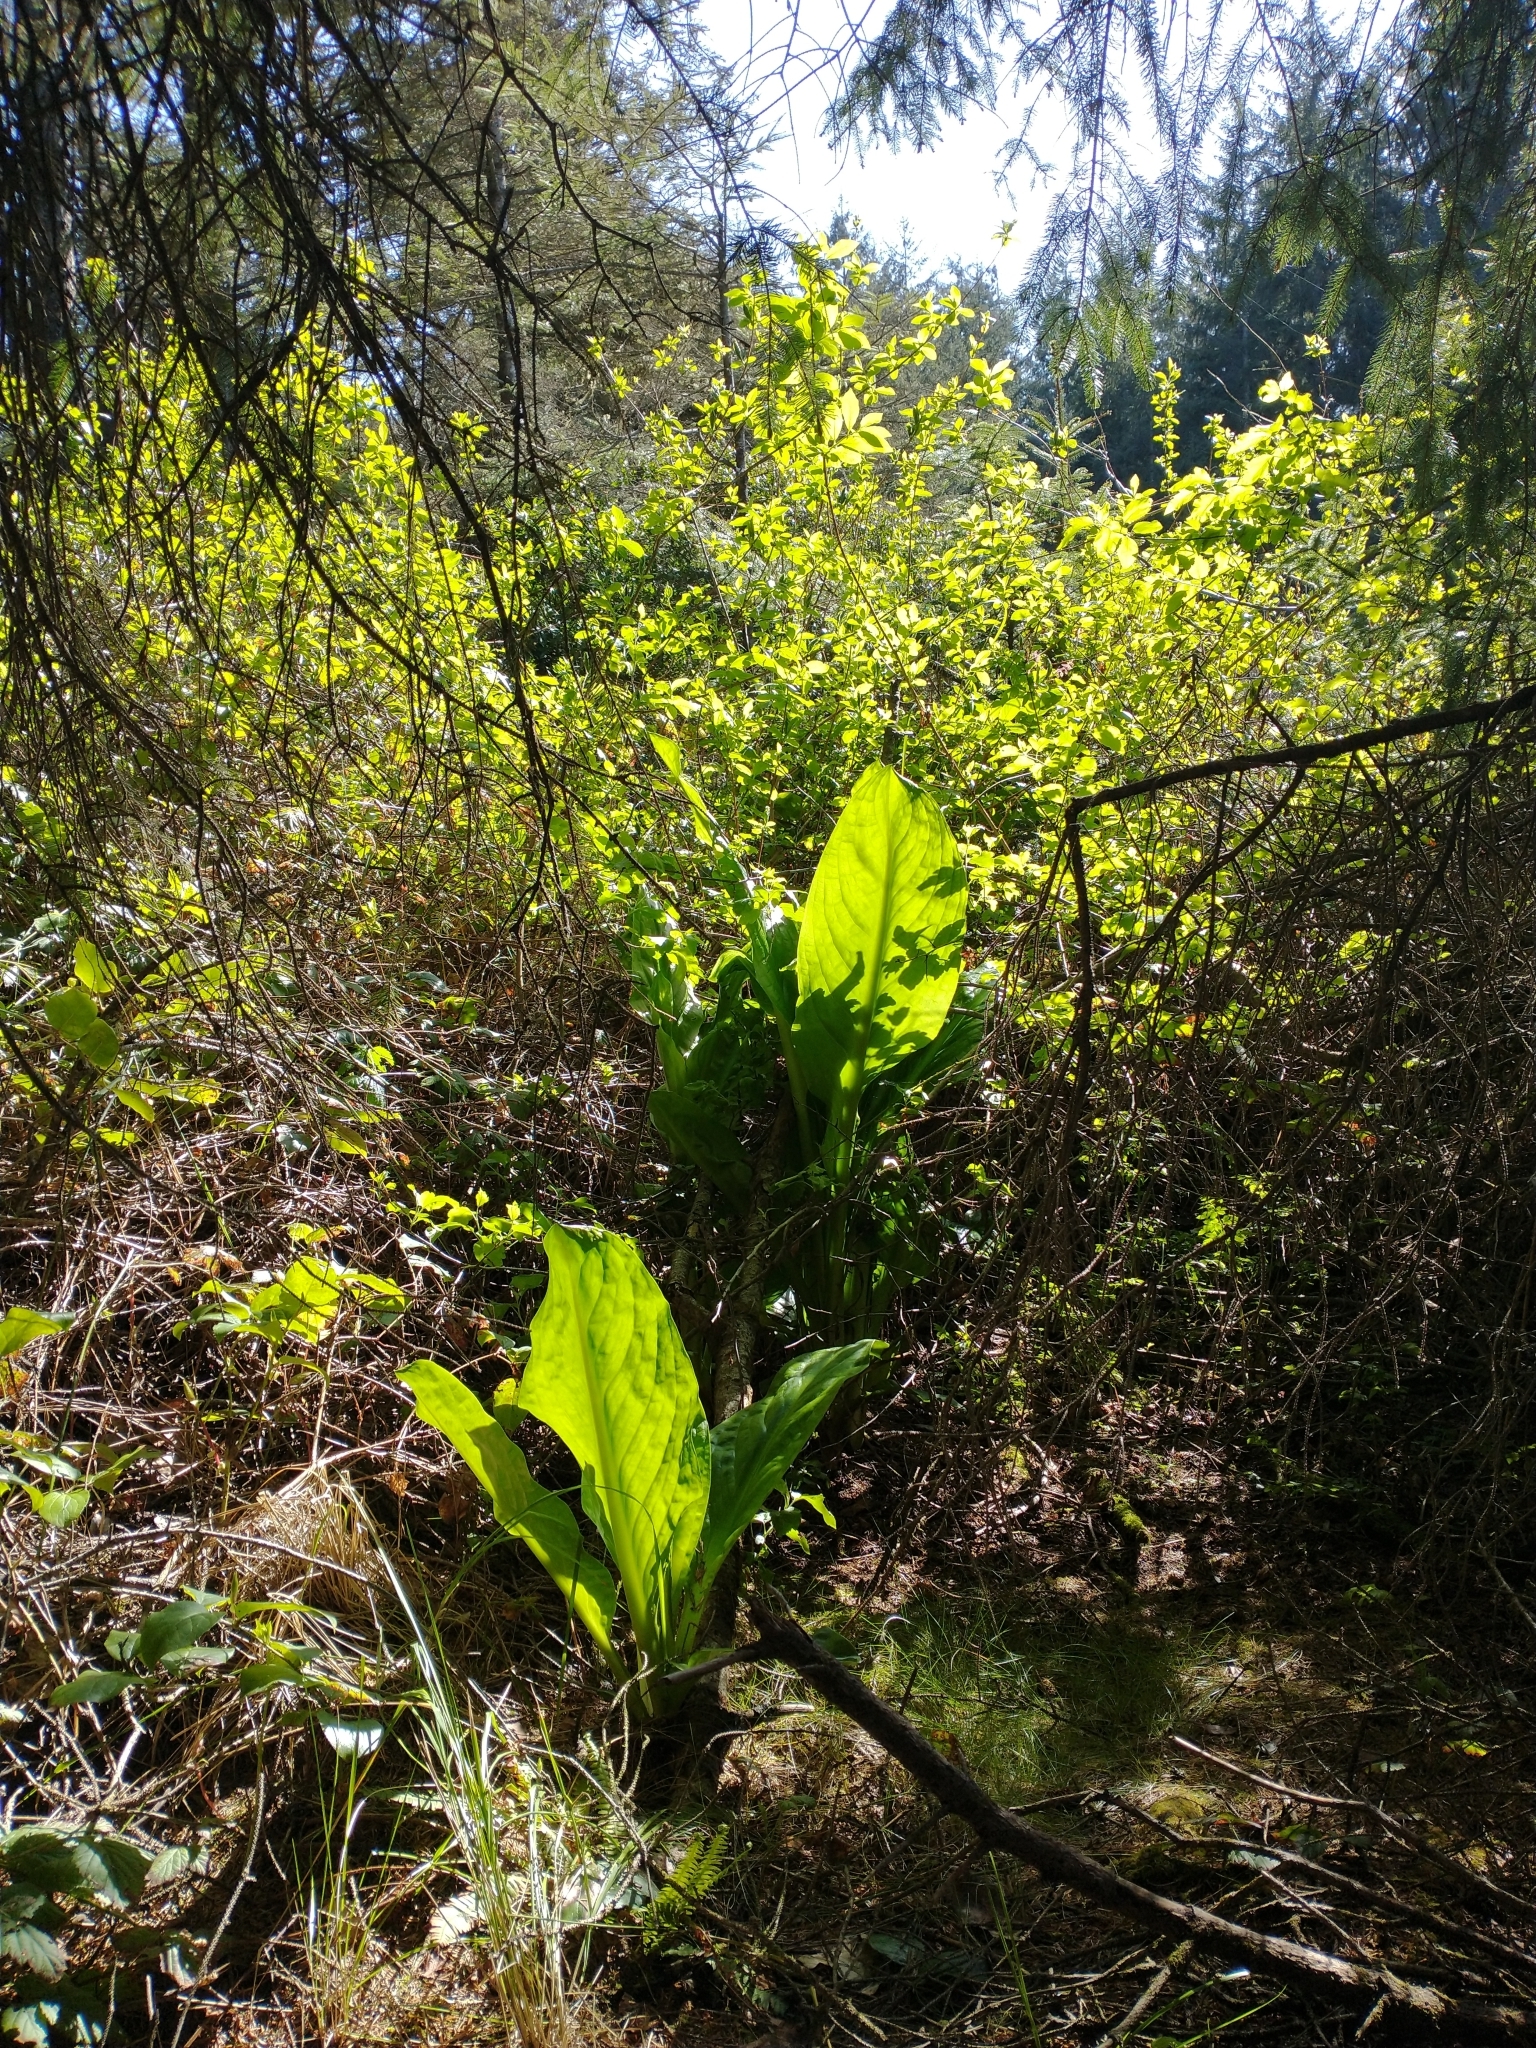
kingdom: Plantae
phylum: Tracheophyta
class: Liliopsida
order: Alismatales
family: Araceae
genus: Lysichiton
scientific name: Lysichiton americanus
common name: American skunk cabbage
